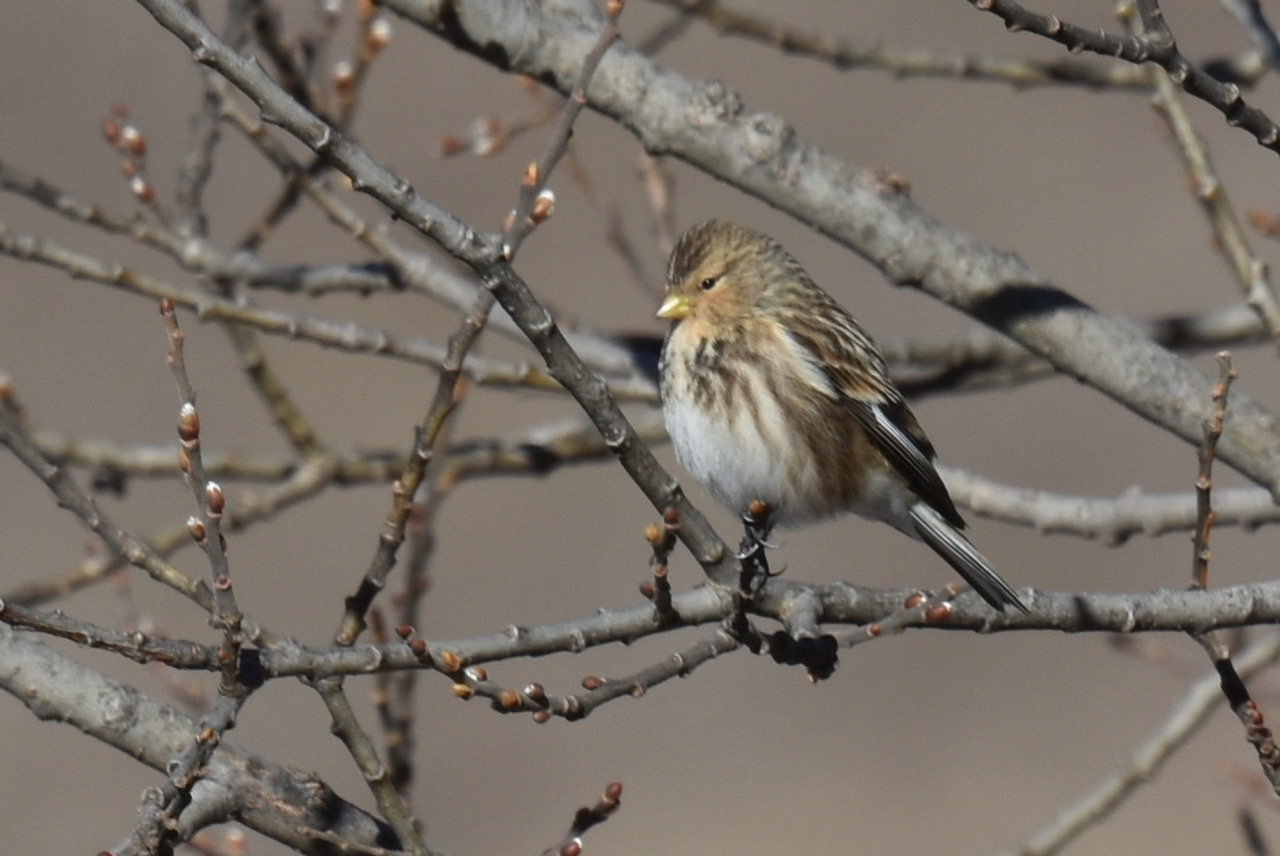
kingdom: Animalia
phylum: Chordata
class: Aves
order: Passeriformes
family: Fringillidae
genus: Linaria
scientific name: Linaria flavirostris
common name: Twite
